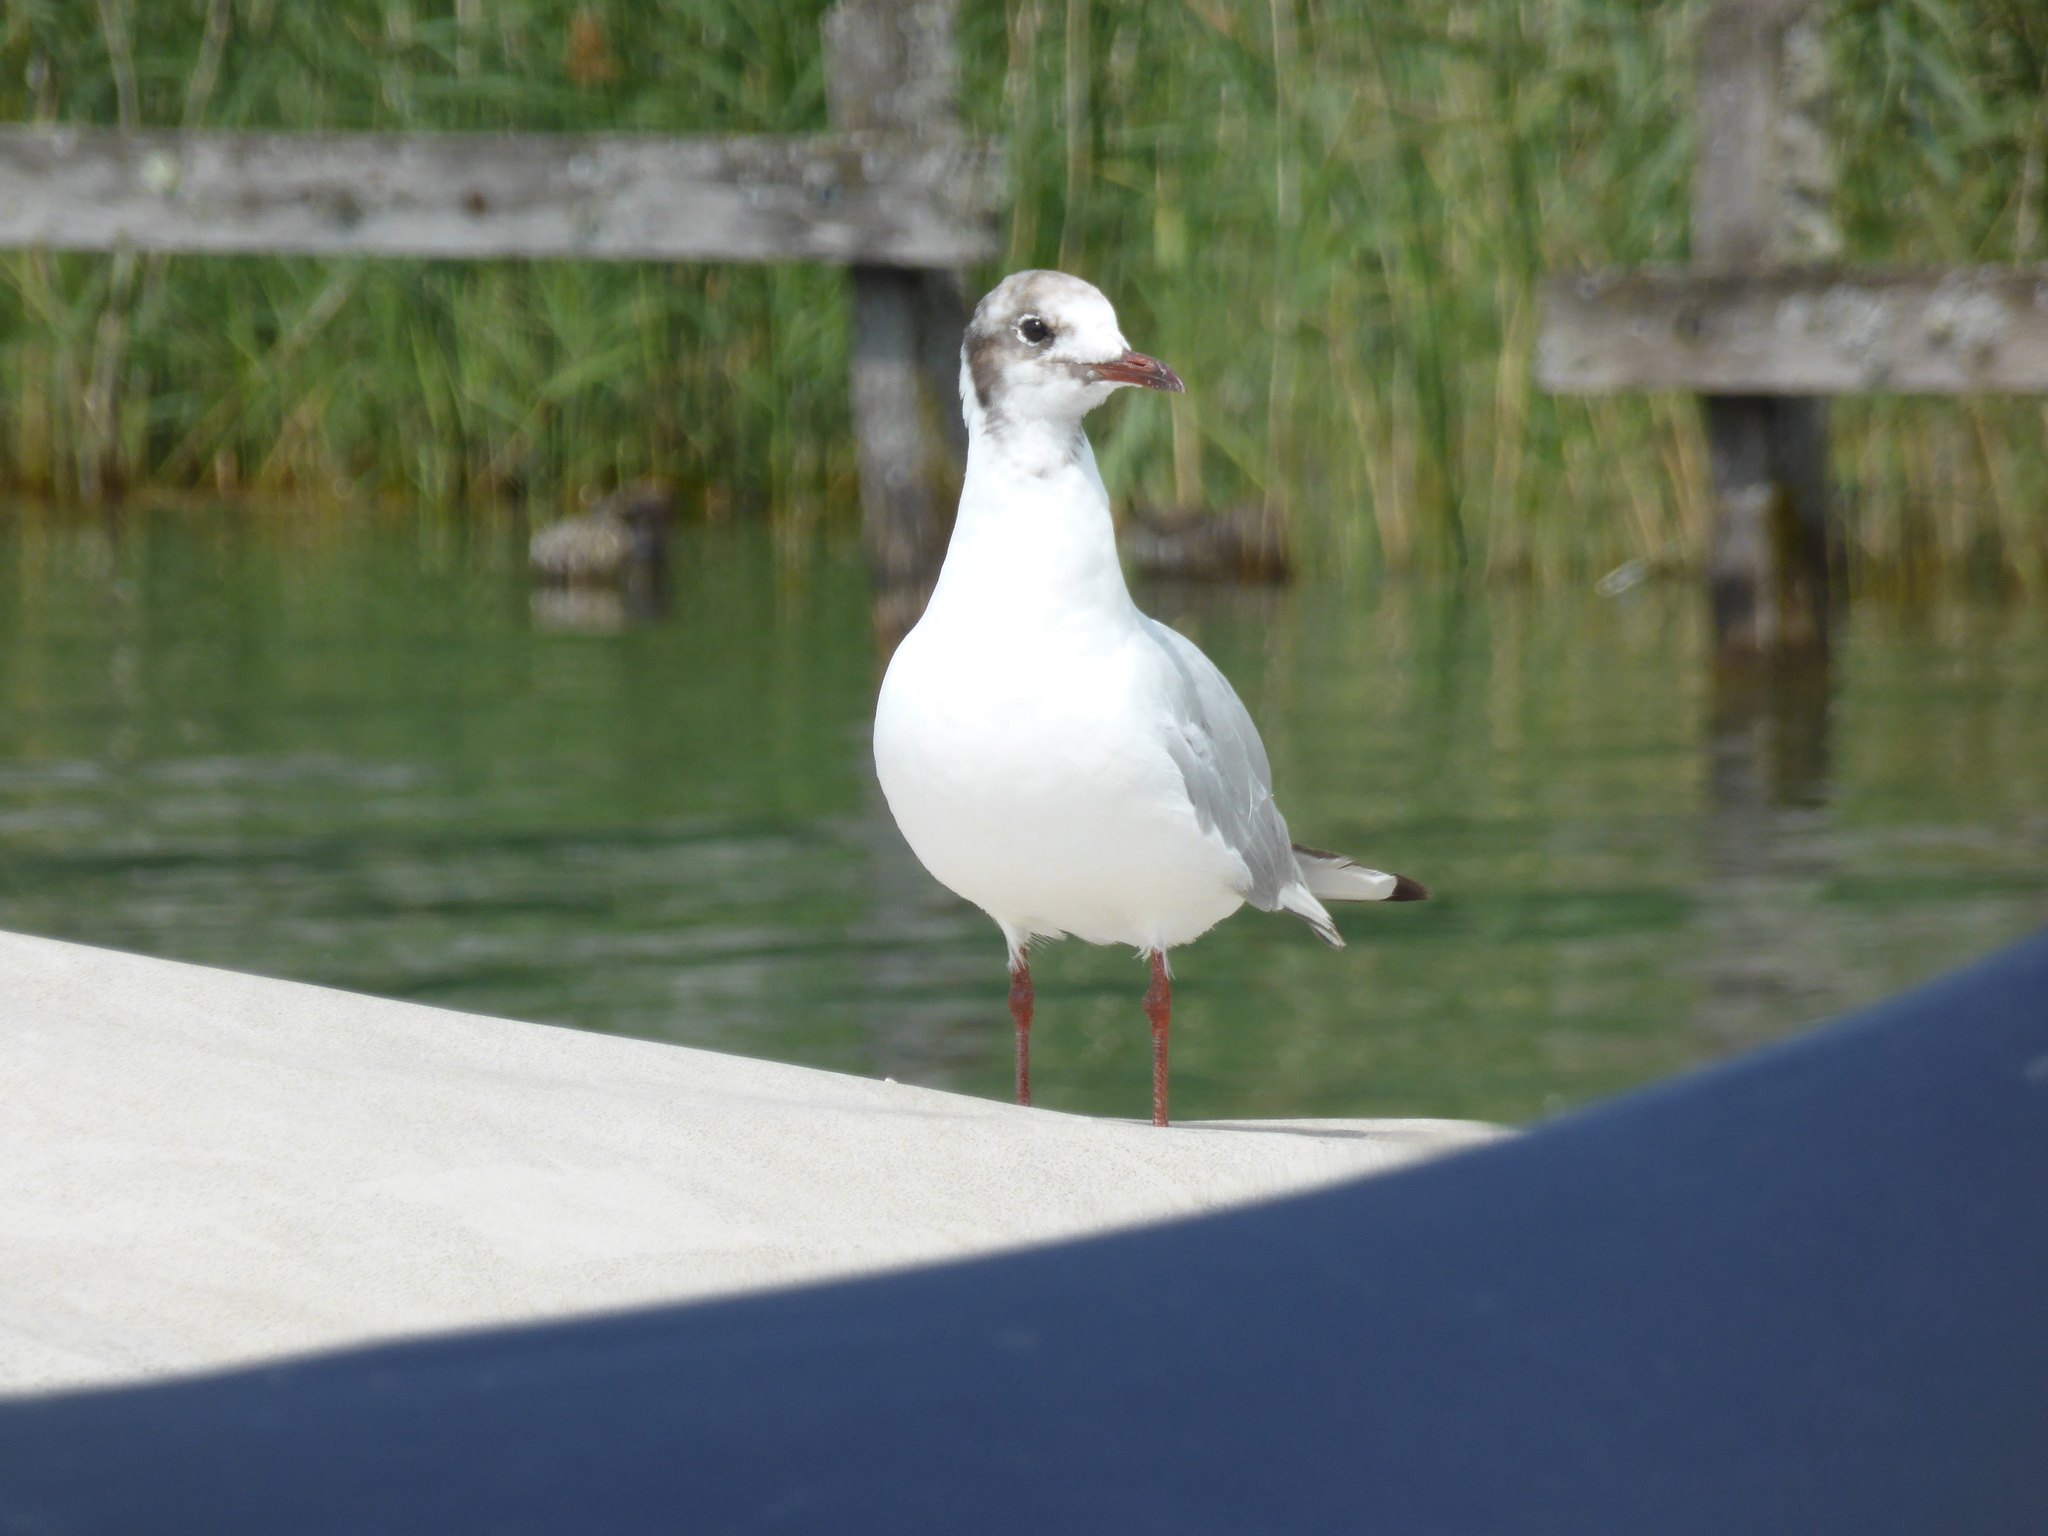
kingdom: Animalia
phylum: Chordata
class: Aves
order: Charadriiformes
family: Laridae
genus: Chroicocephalus
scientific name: Chroicocephalus ridibundus
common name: Black-headed gull
